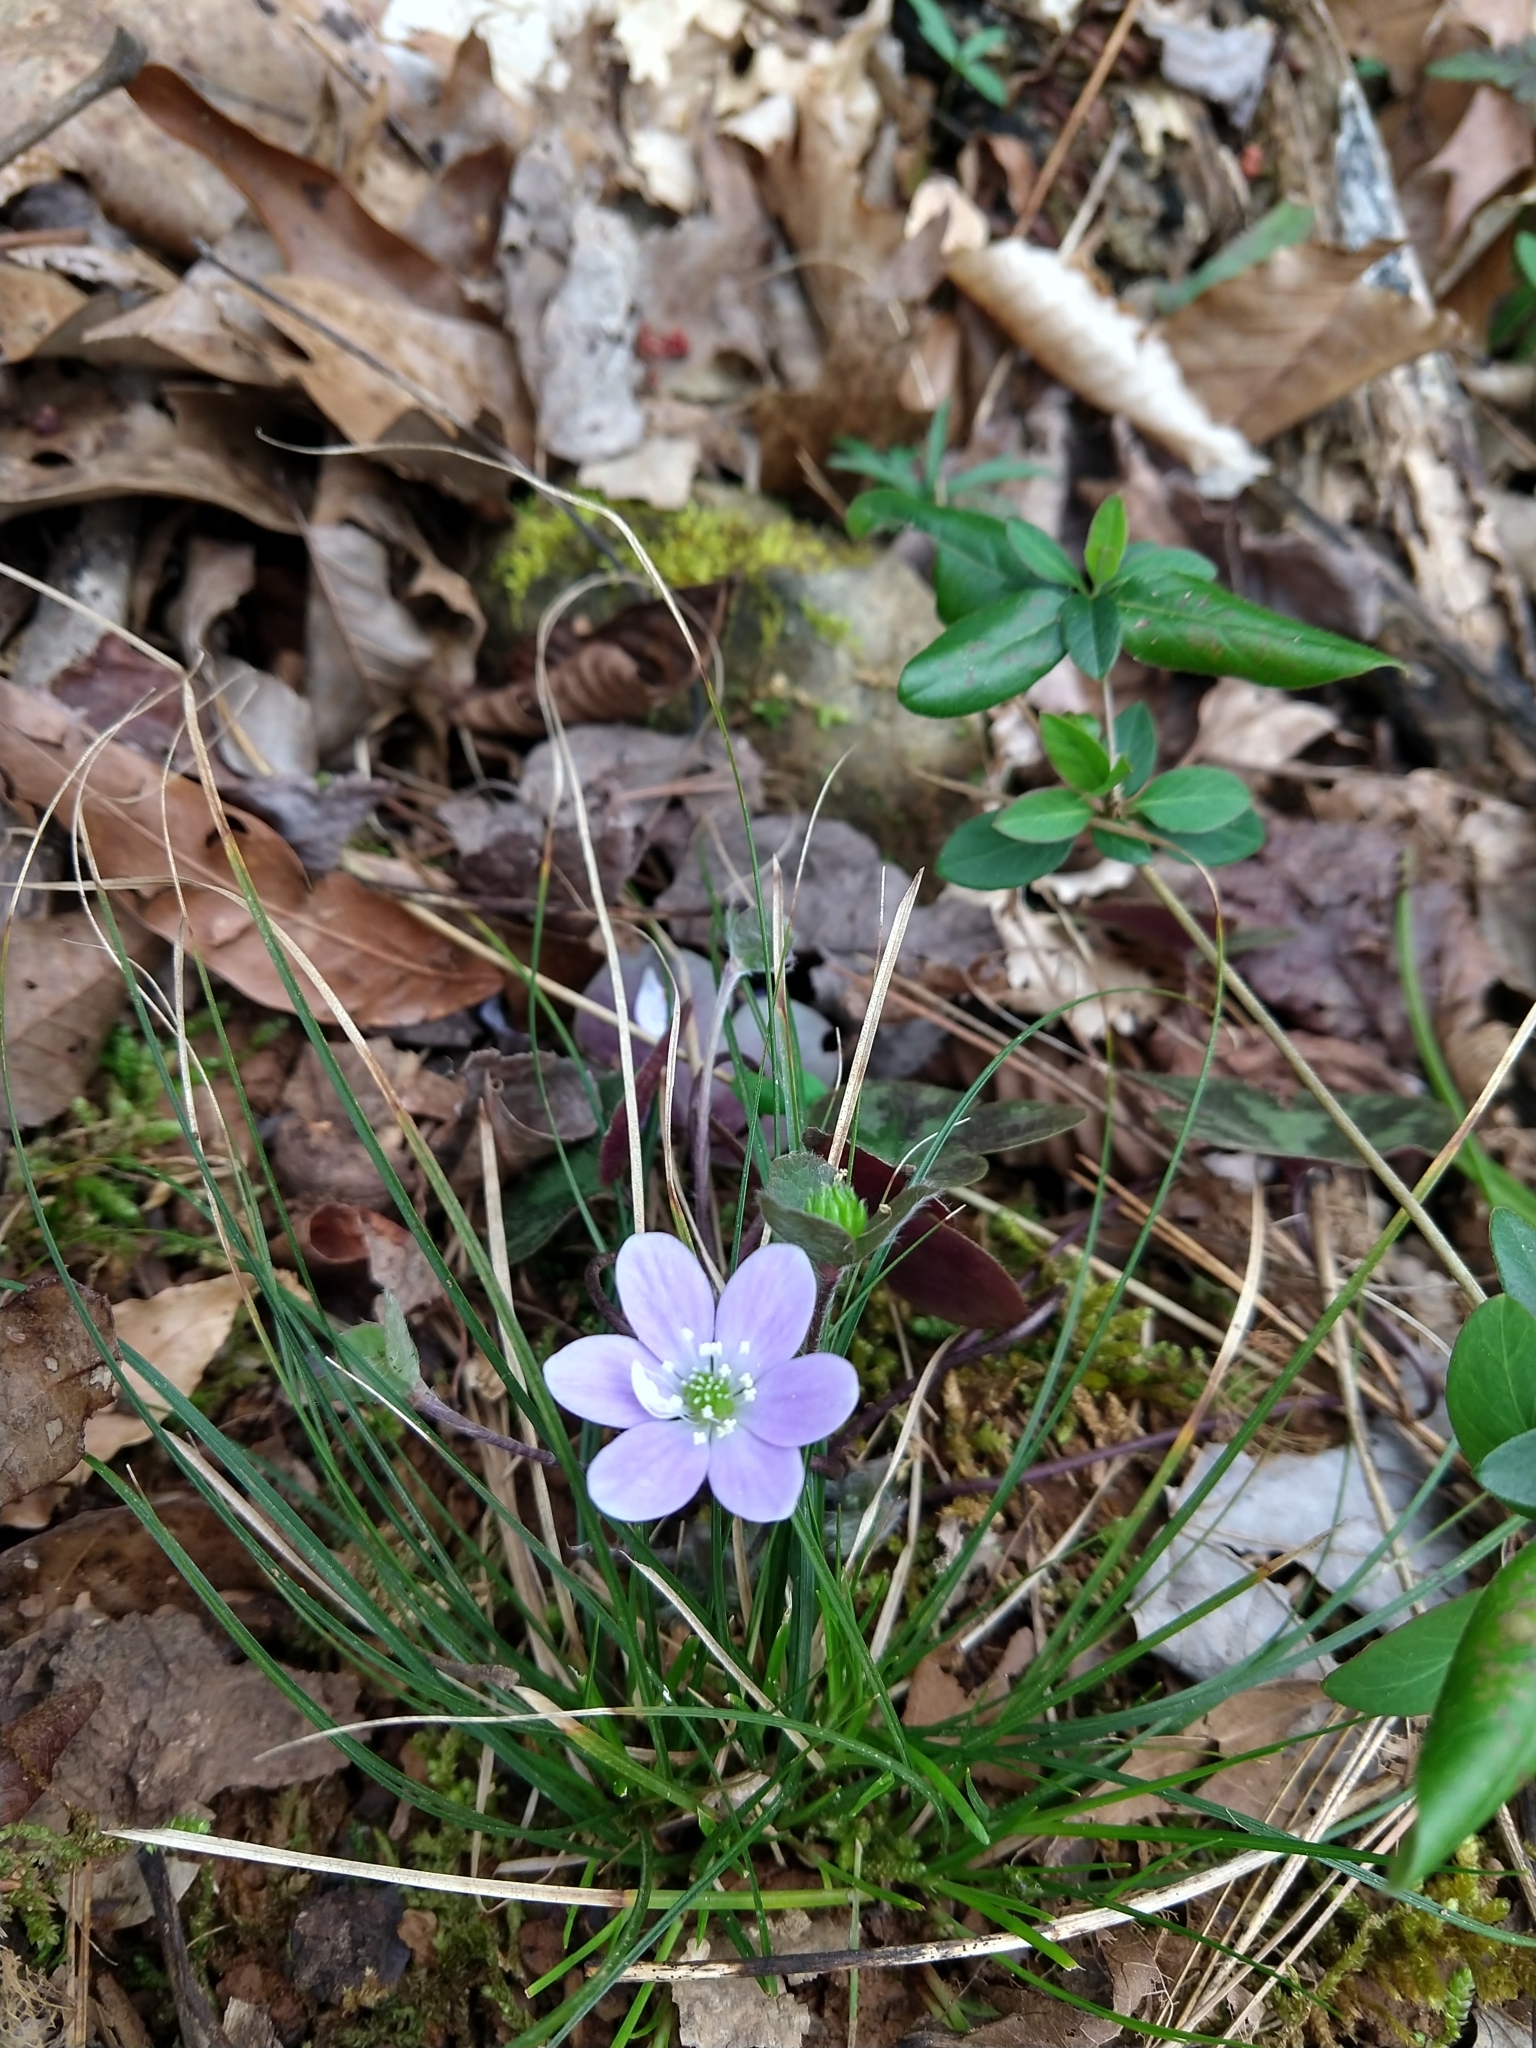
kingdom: Plantae
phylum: Tracheophyta
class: Magnoliopsida
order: Ranunculales
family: Ranunculaceae
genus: Hepatica
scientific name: Hepatica americana
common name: American hepatica
